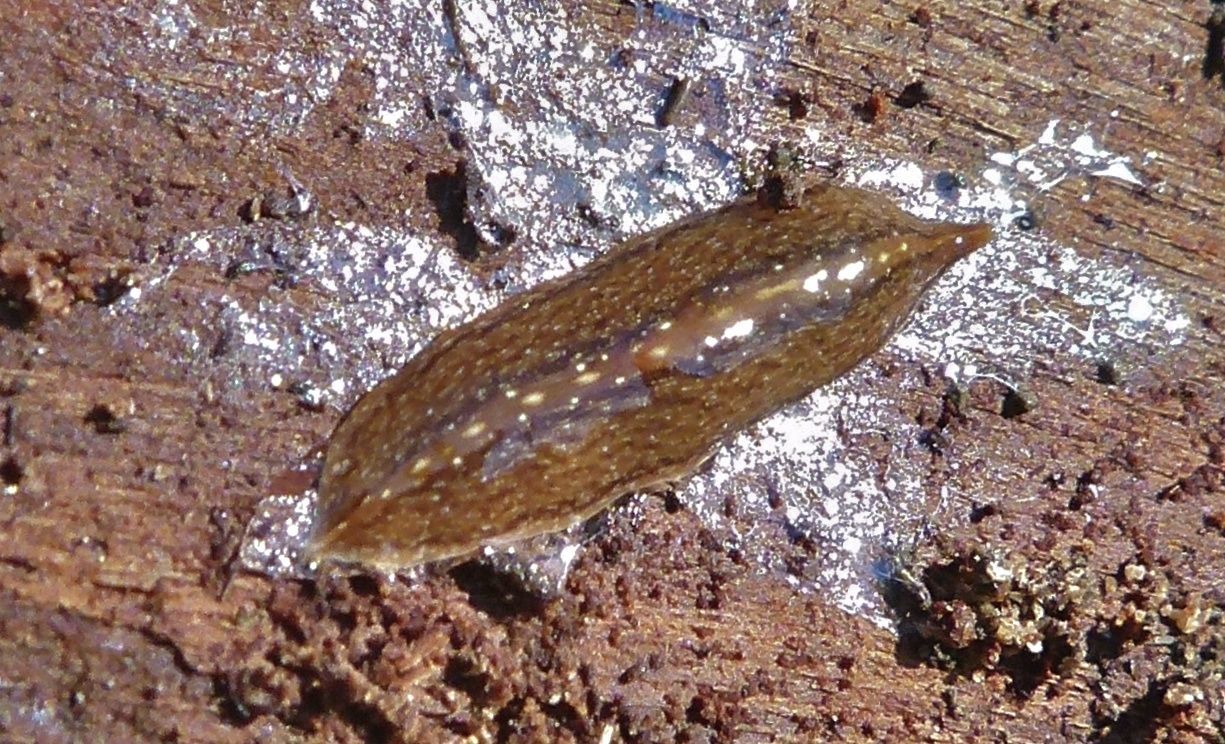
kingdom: Animalia
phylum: Platyhelminthes
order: Tricladida
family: Geoplanidae
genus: Australopacifica
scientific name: Australopacifica
